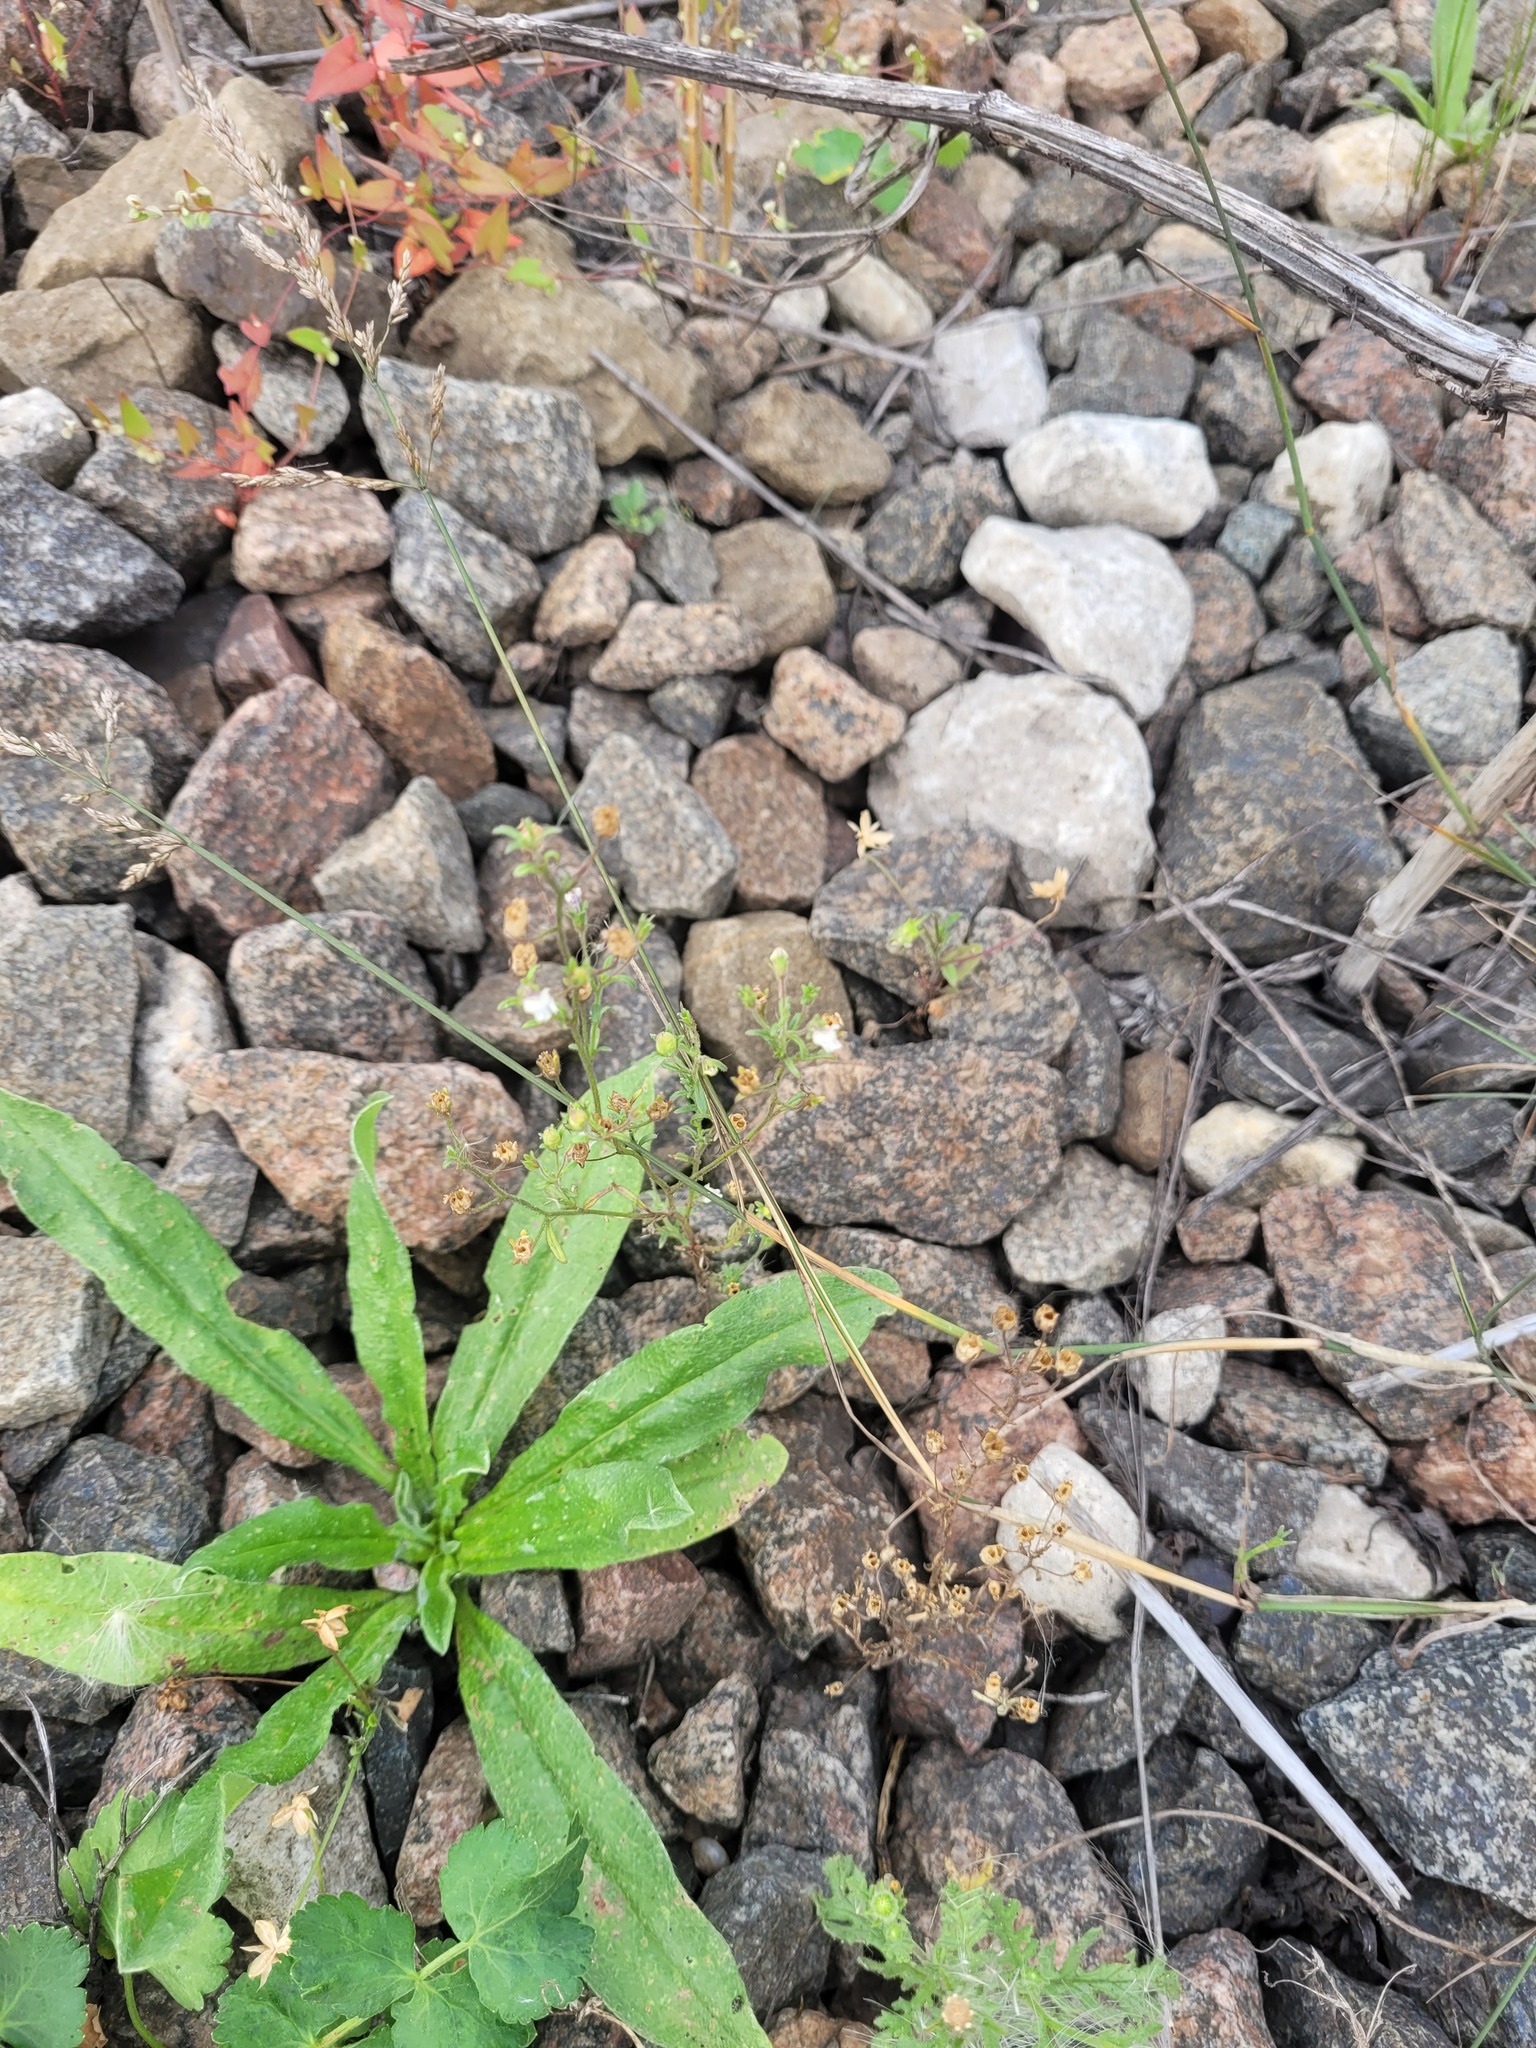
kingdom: Plantae
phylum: Tracheophyta
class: Magnoliopsida
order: Lamiales
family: Plantaginaceae
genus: Chaenorhinum
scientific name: Chaenorhinum minus
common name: Dwarf snapdragon
